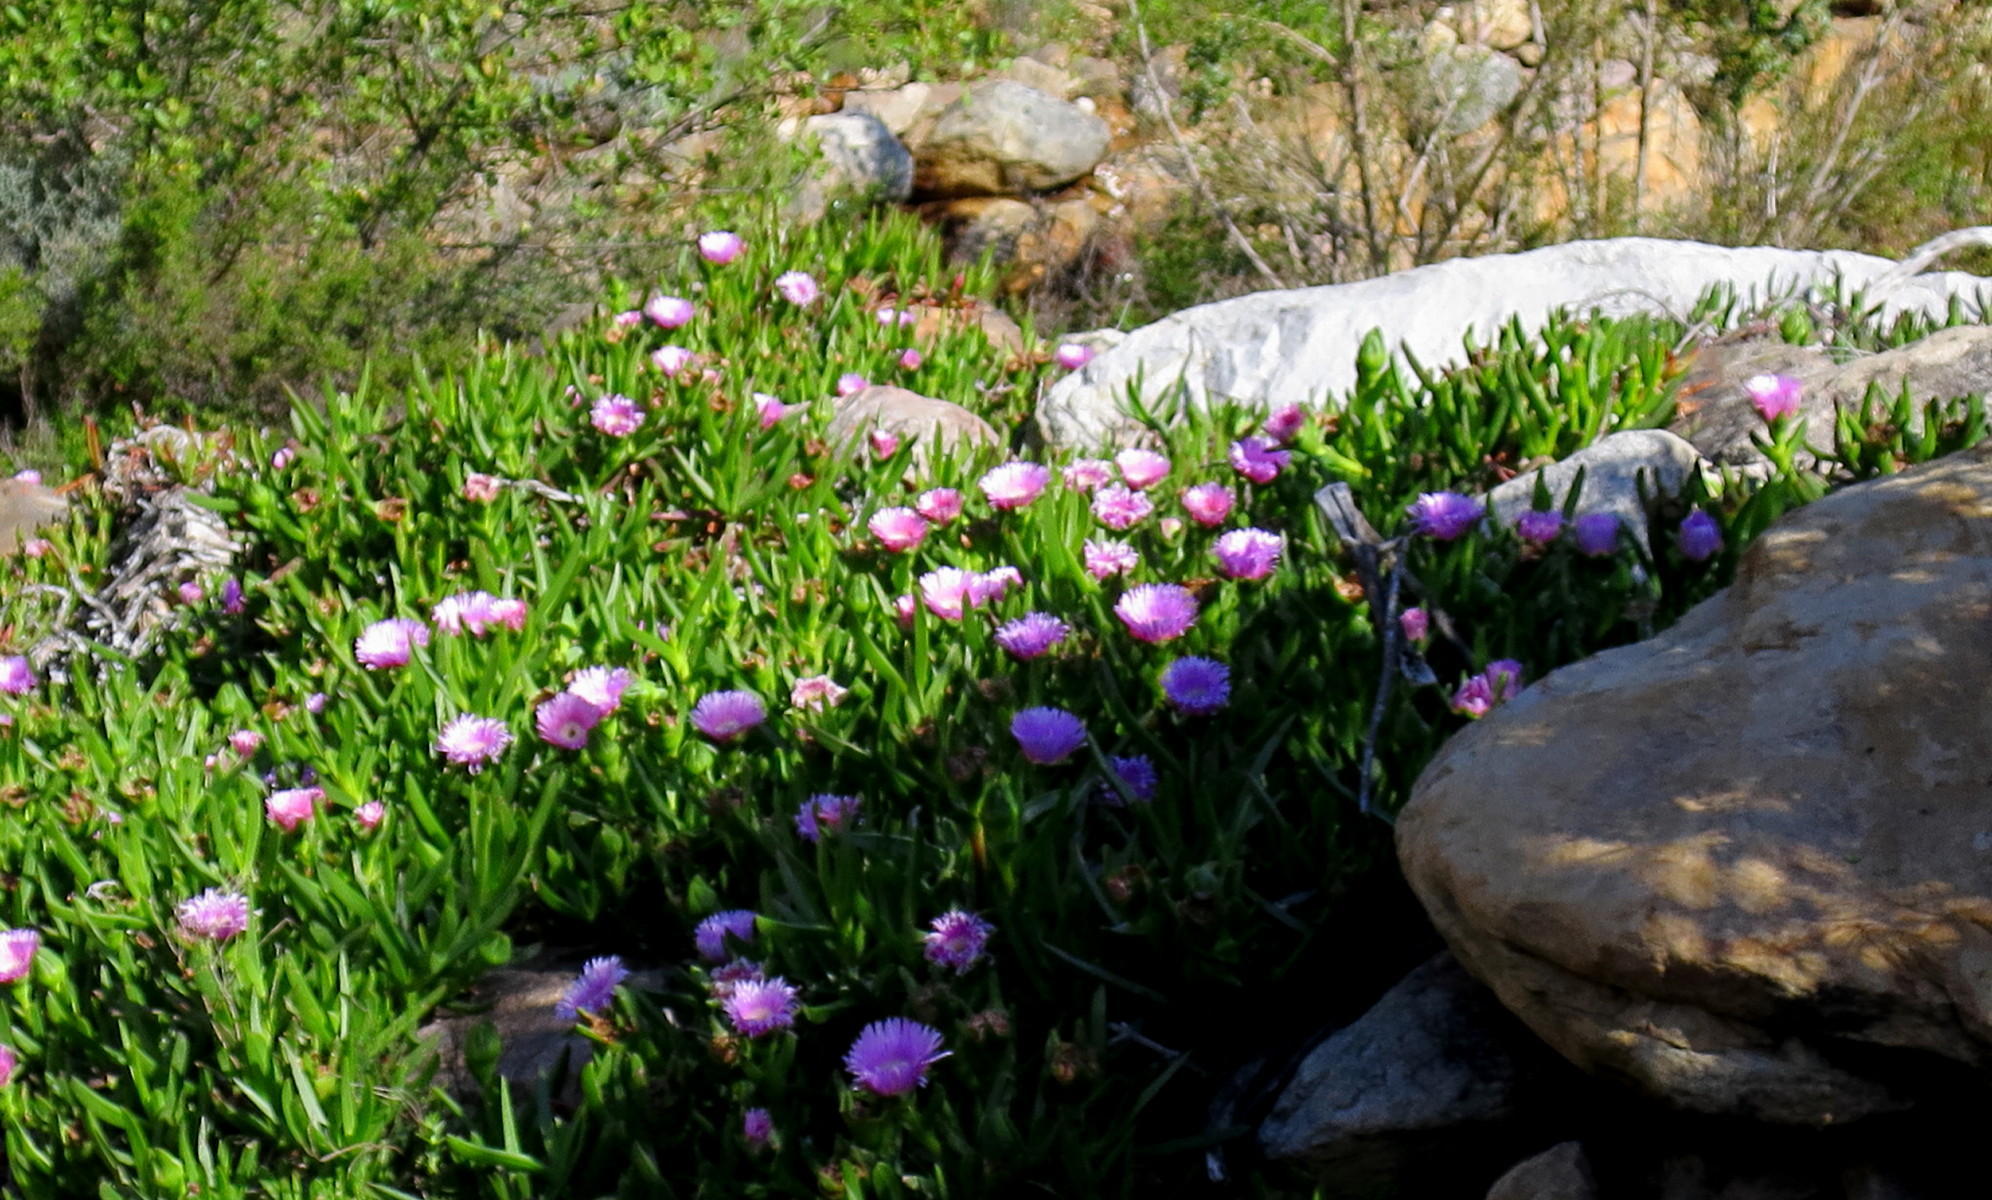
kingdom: Plantae
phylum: Tracheophyta
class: Magnoliopsida
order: Caryophyllales
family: Aizoaceae
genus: Carpobrotus
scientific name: Carpobrotus mellei
